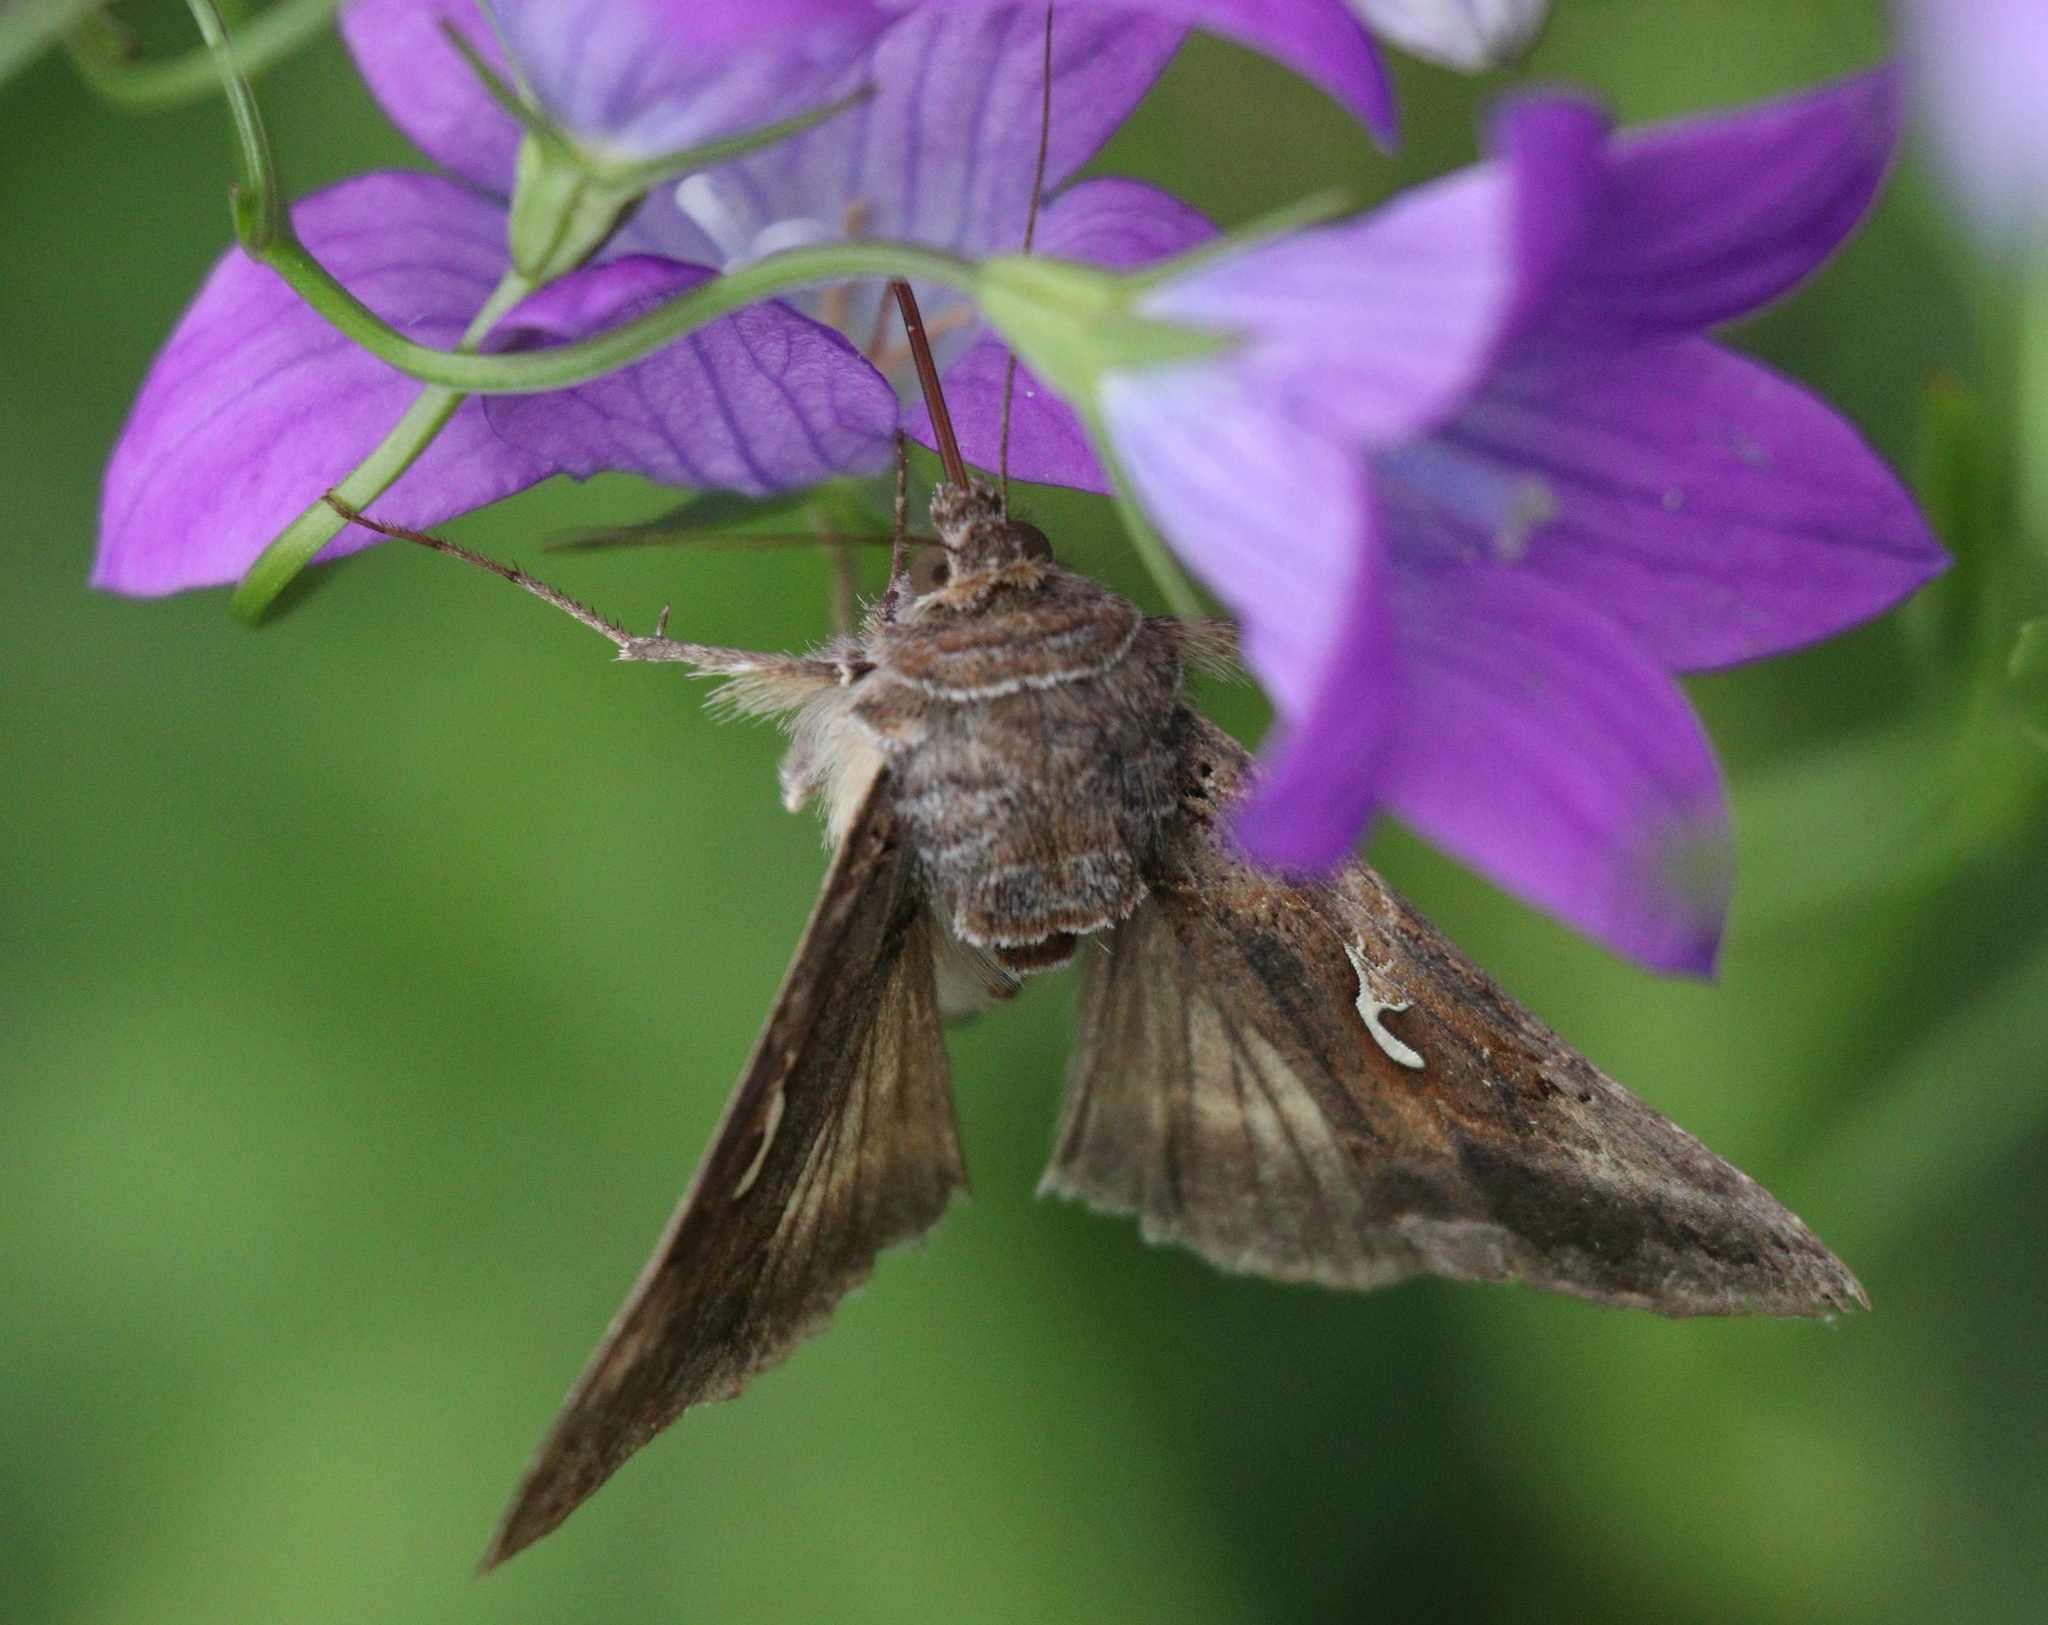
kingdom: Animalia
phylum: Arthropoda
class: Insecta
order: Lepidoptera
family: Noctuidae
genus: Autographa
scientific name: Autographa gamma
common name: Silver y
